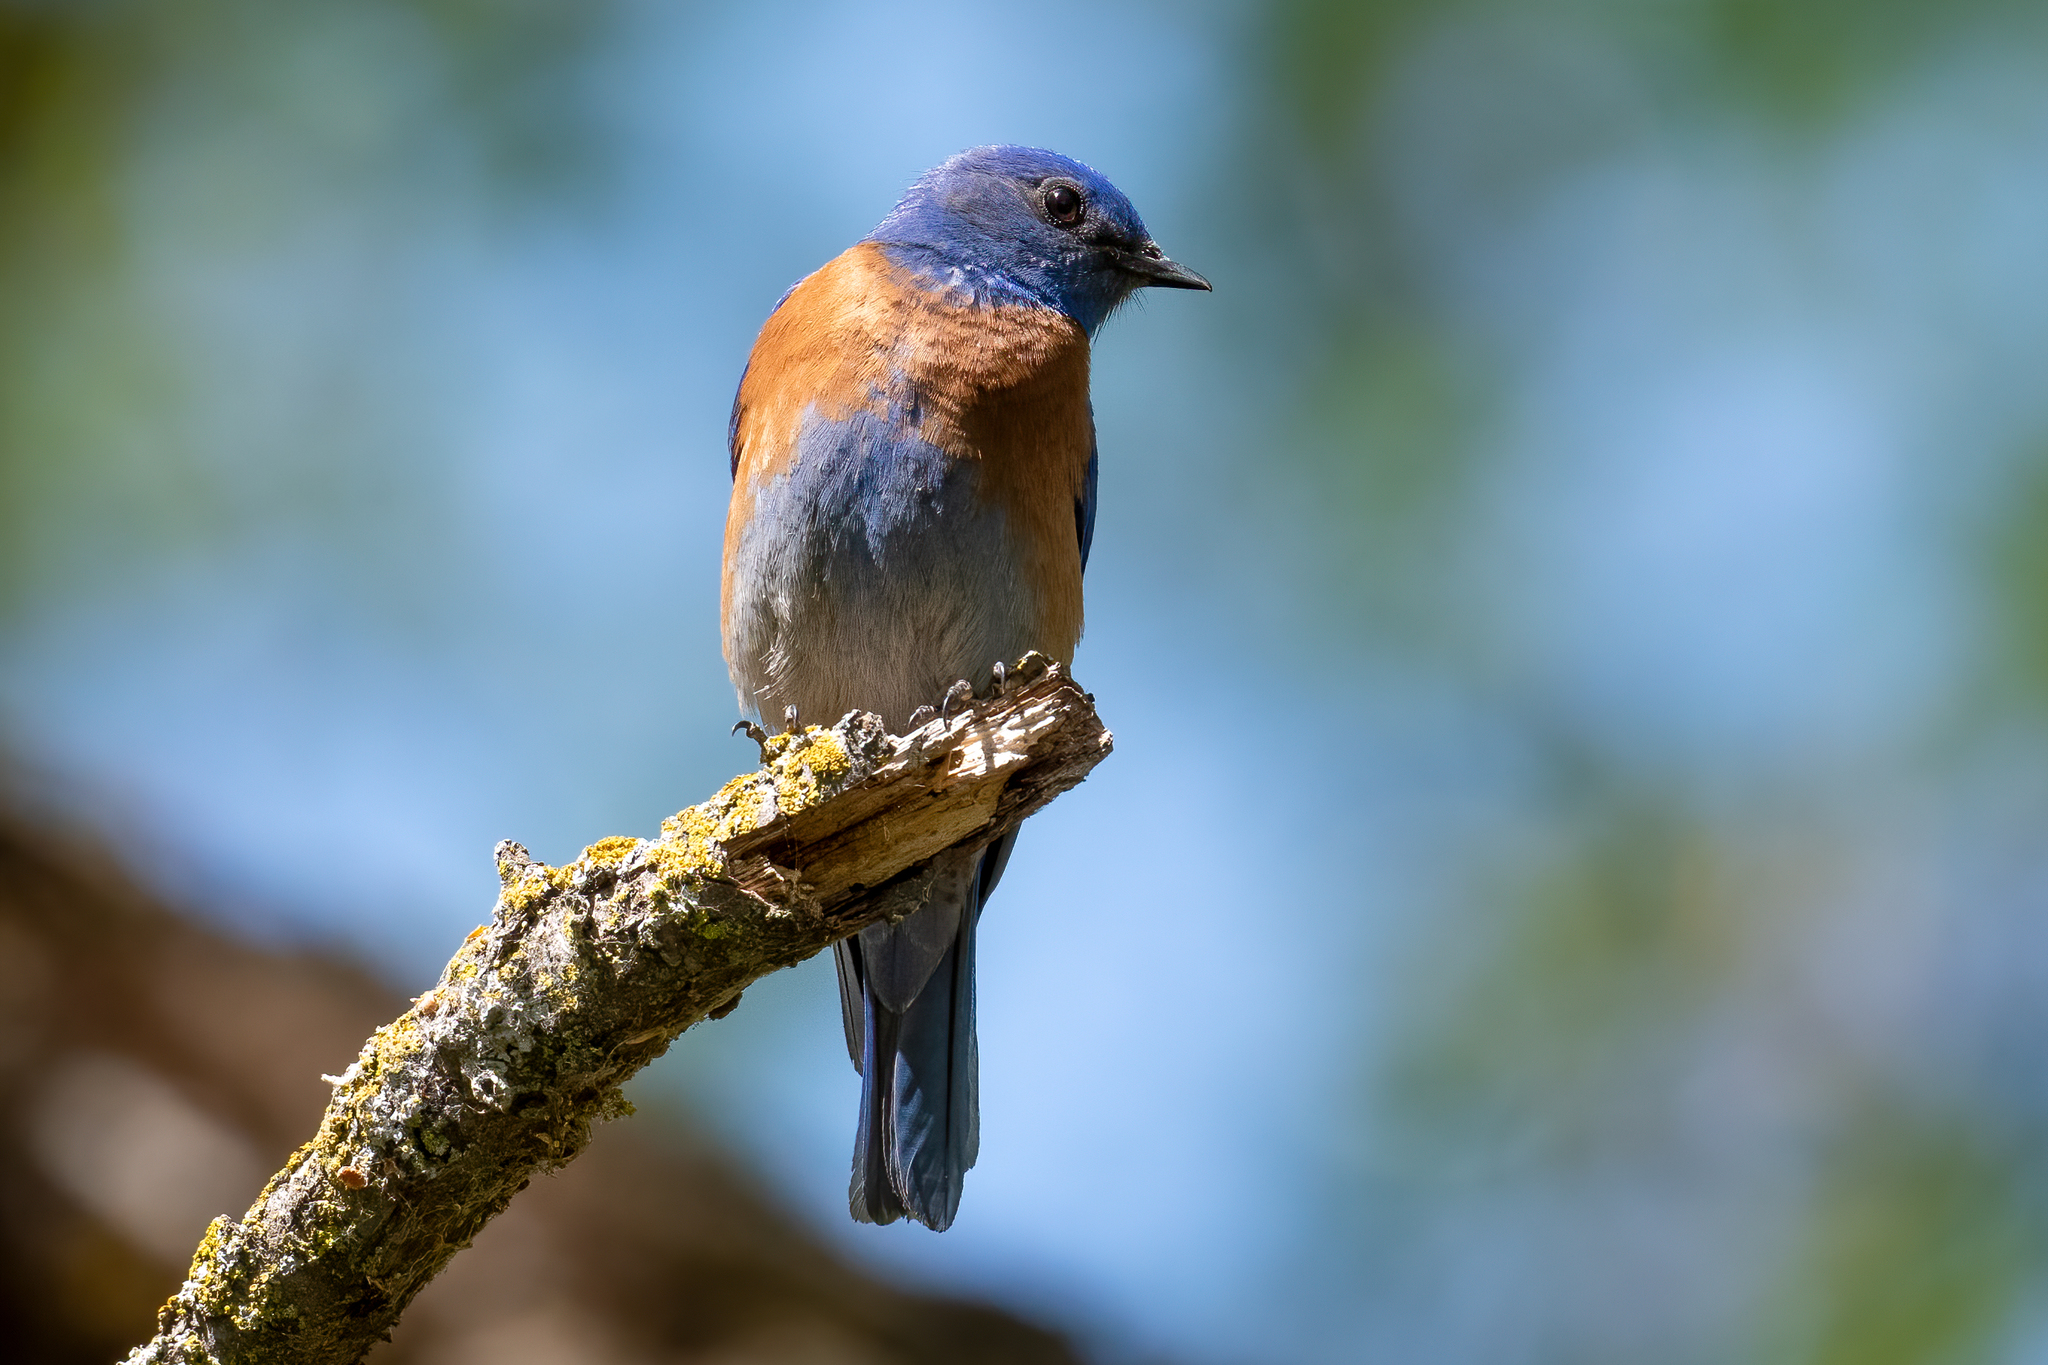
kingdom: Animalia
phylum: Chordata
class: Aves
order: Passeriformes
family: Turdidae
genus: Sialia
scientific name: Sialia mexicana
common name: Western bluebird
